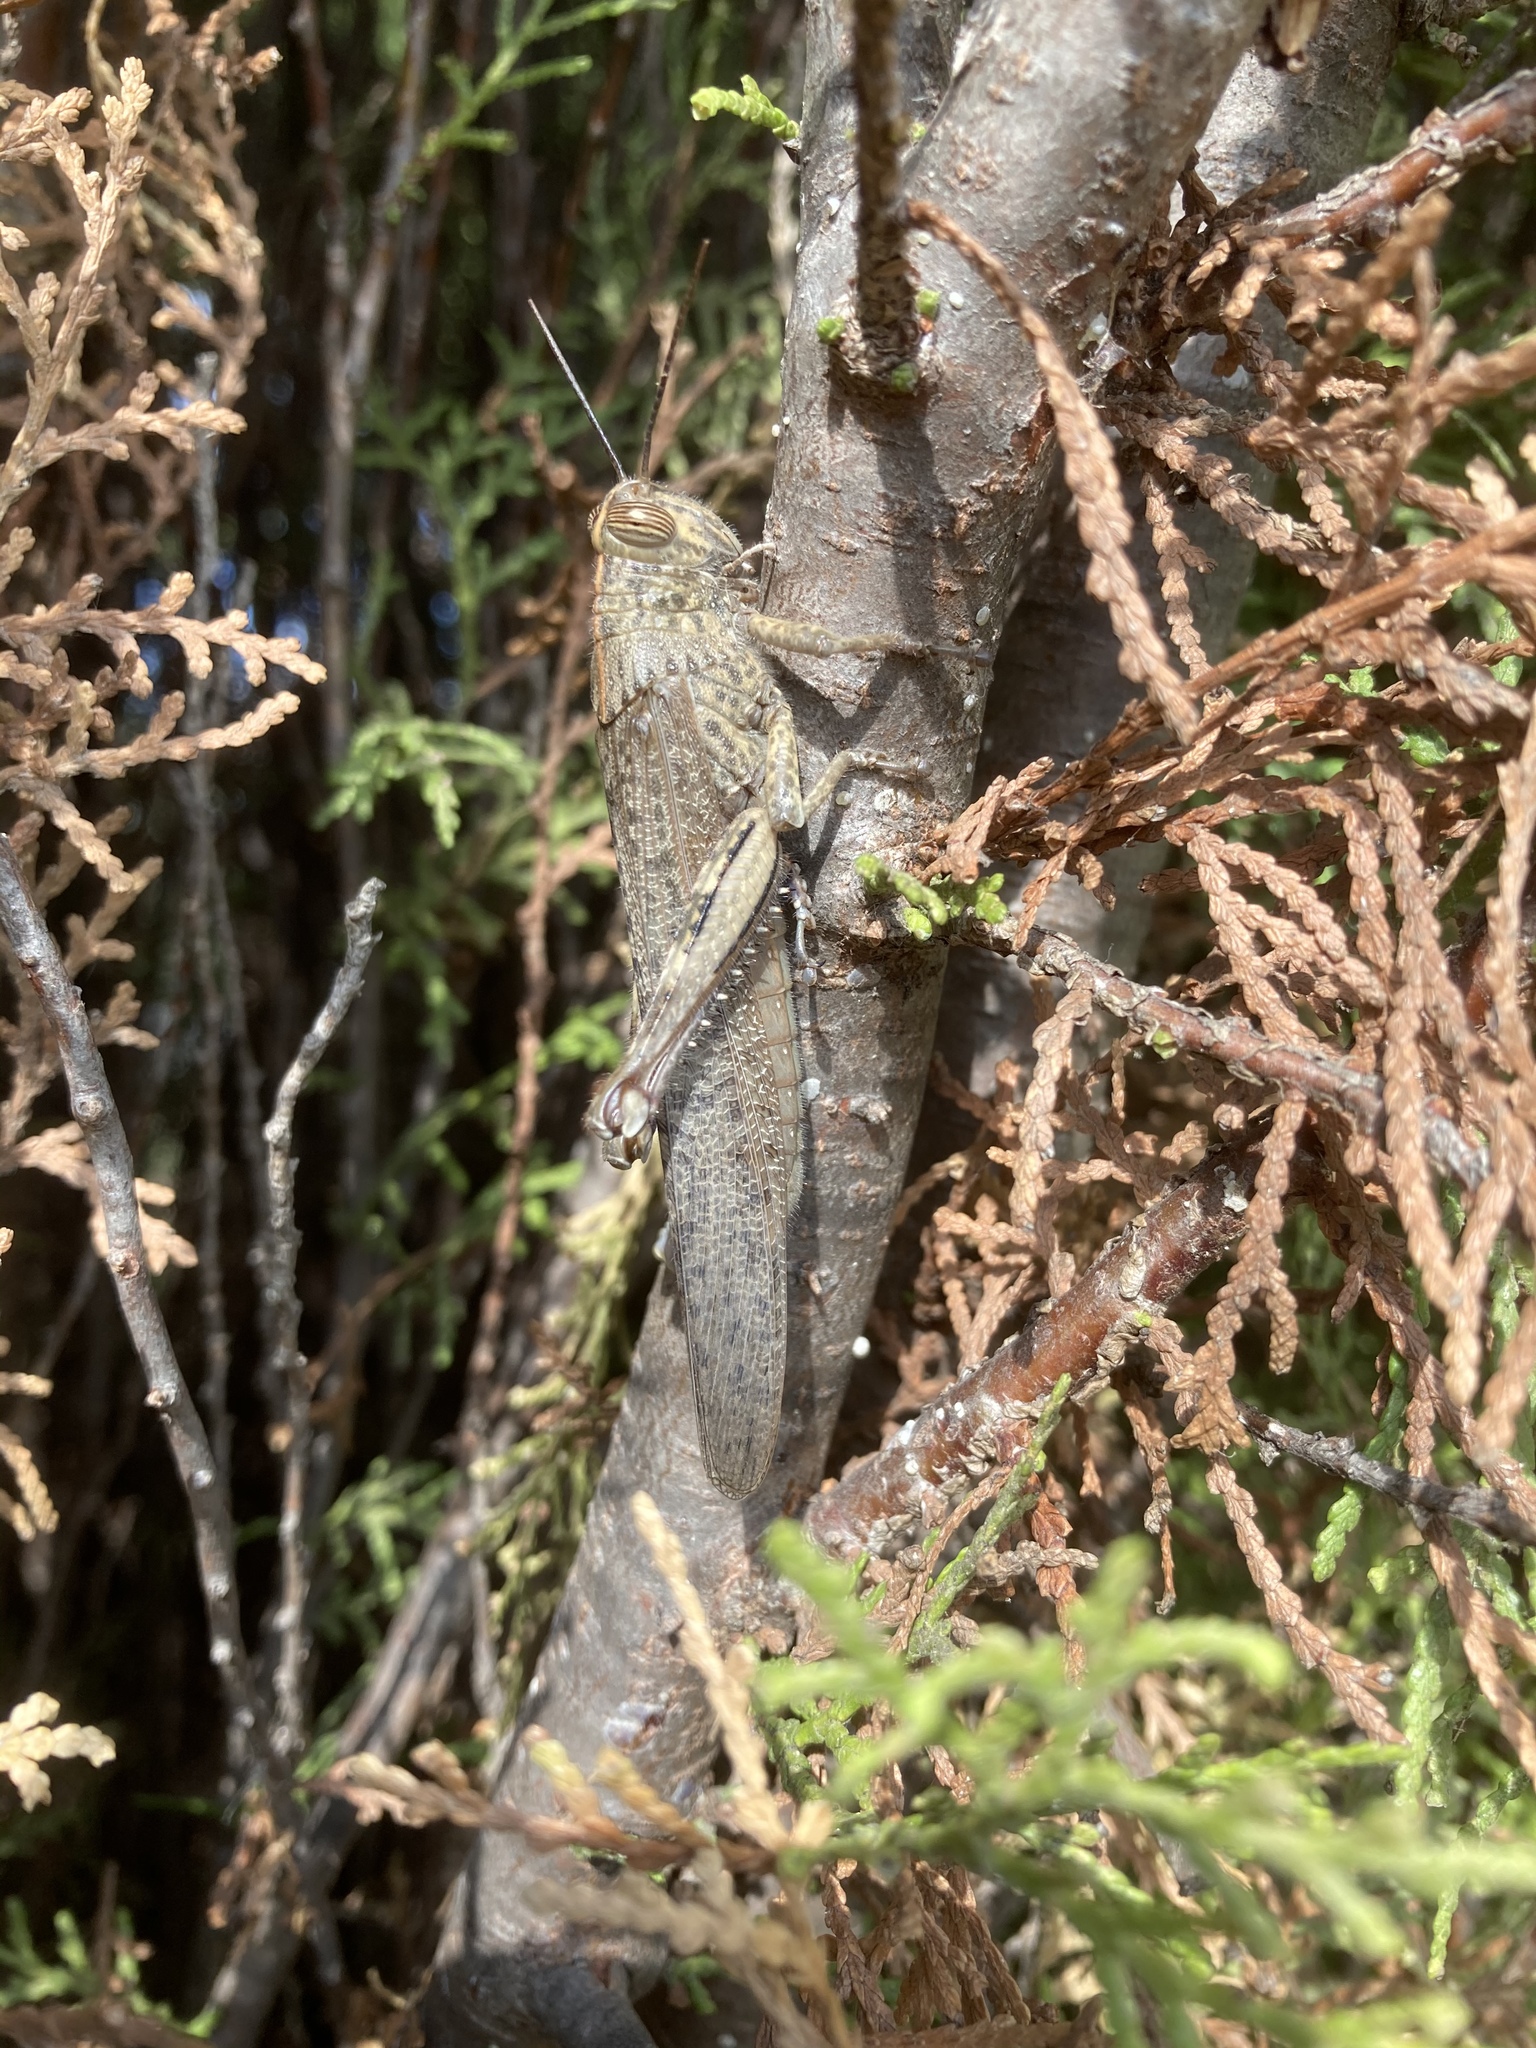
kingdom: Animalia
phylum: Arthropoda
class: Insecta
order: Orthoptera
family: Acrididae
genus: Anacridium
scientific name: Anacridium aegyptium
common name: Egyptian grasshopper
